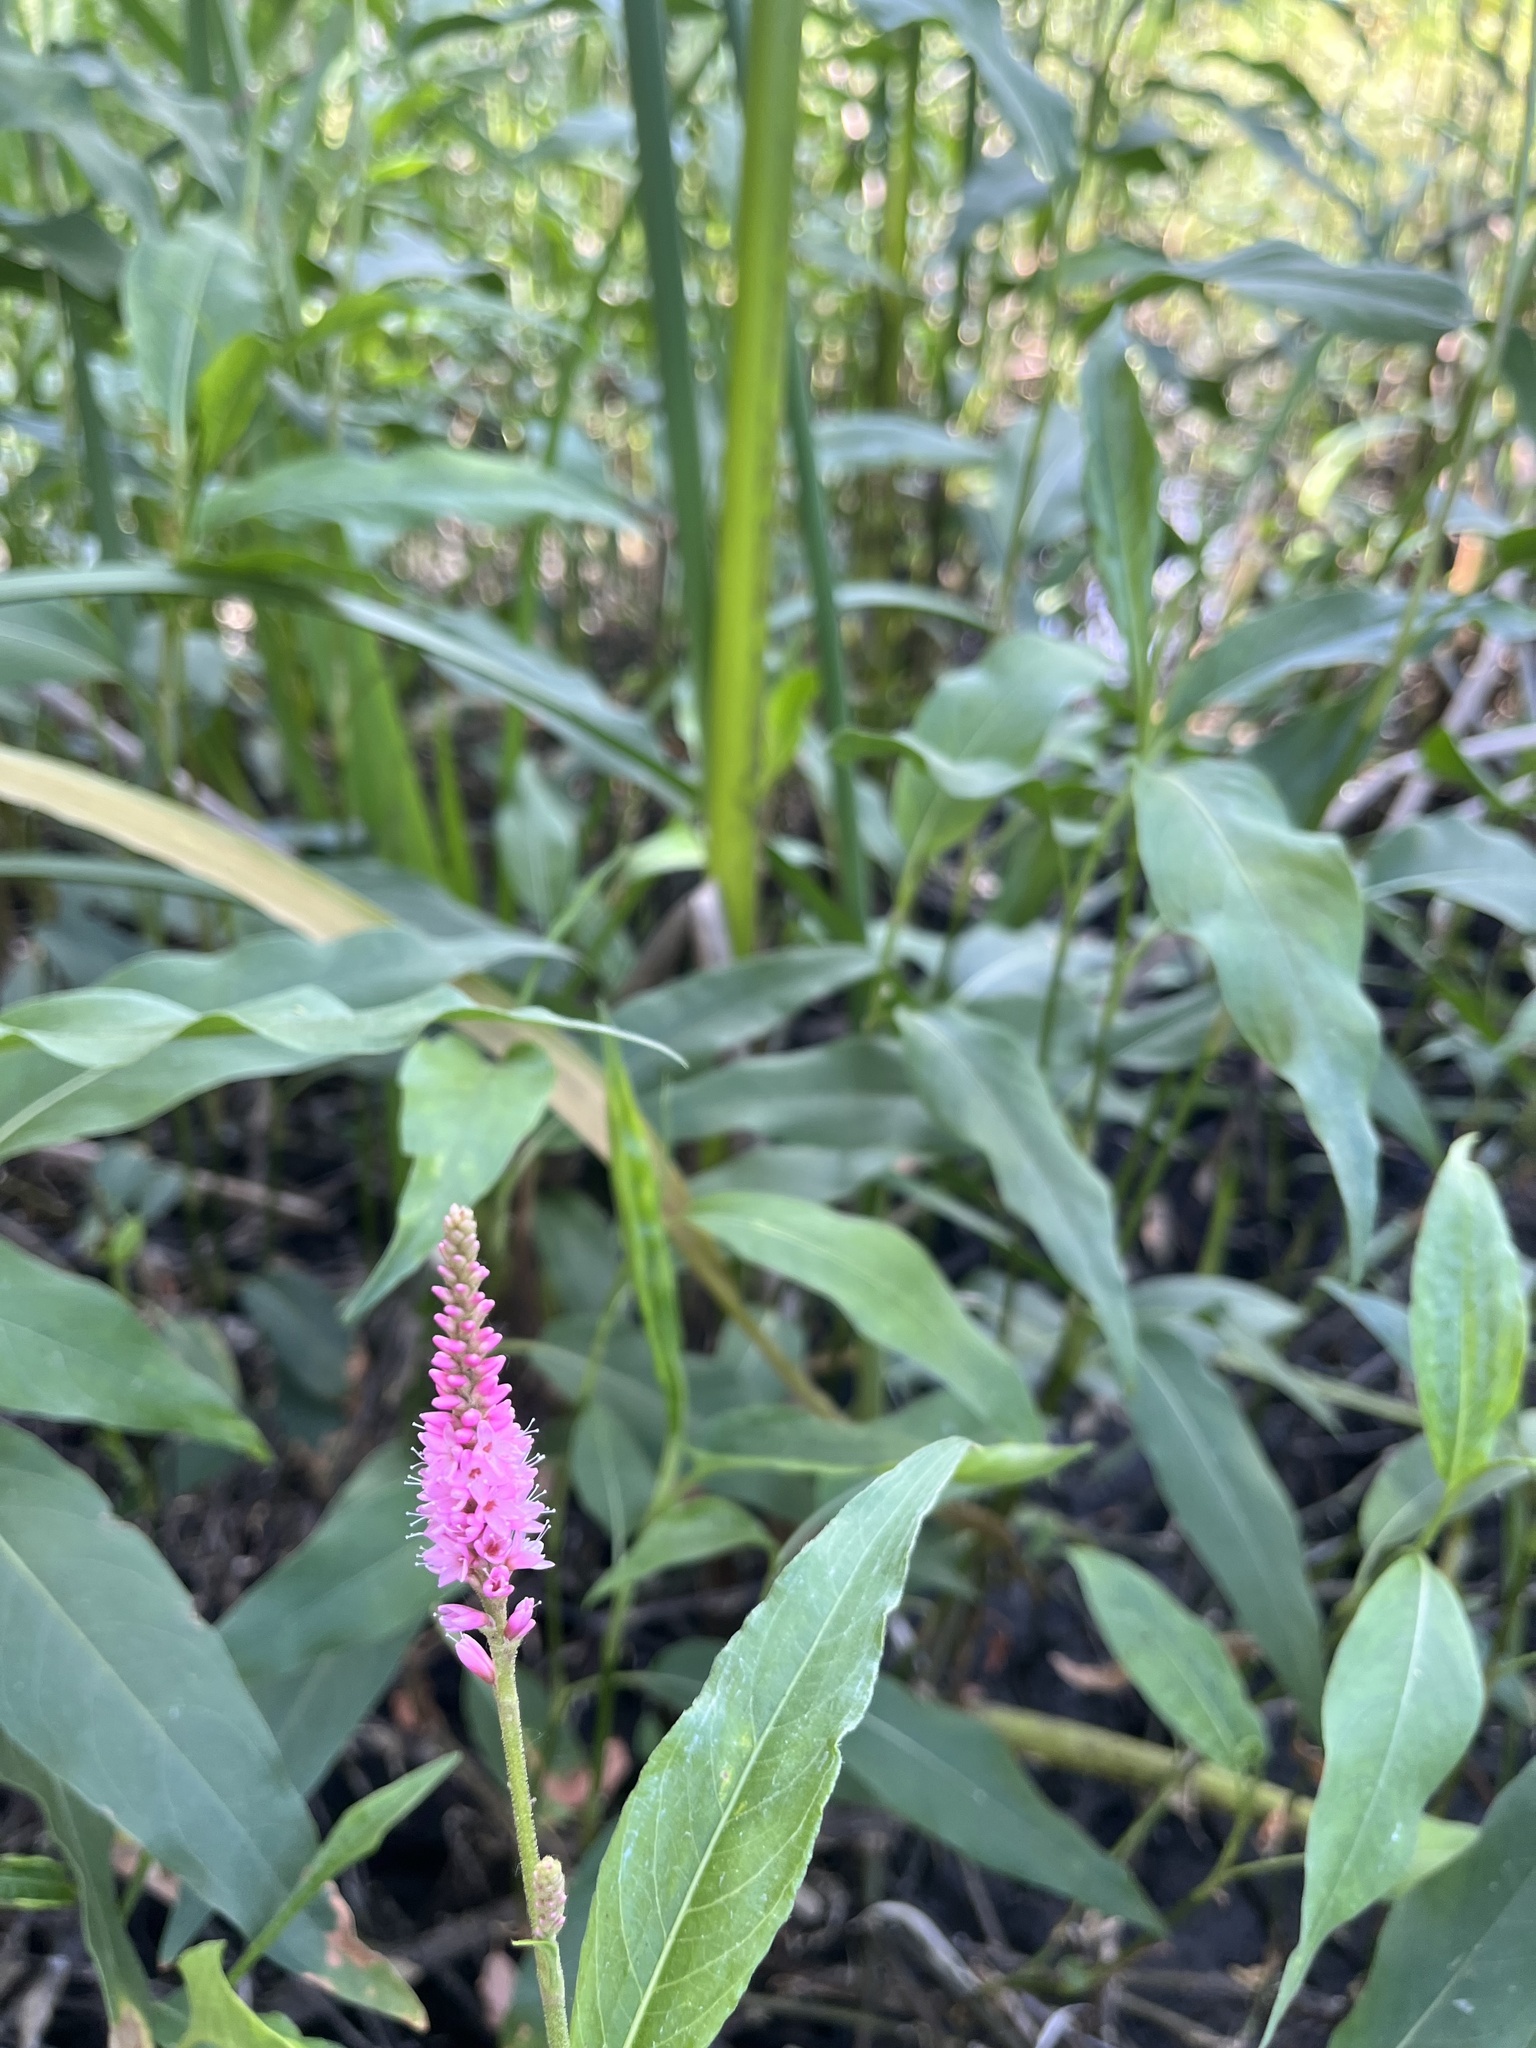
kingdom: Plantae
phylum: Tracheophyta
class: Magnoliopsida
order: Caryophyllales
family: Polygonaceae
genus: Persicaria
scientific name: Persicaria amphibia
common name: Amphibious bistort
